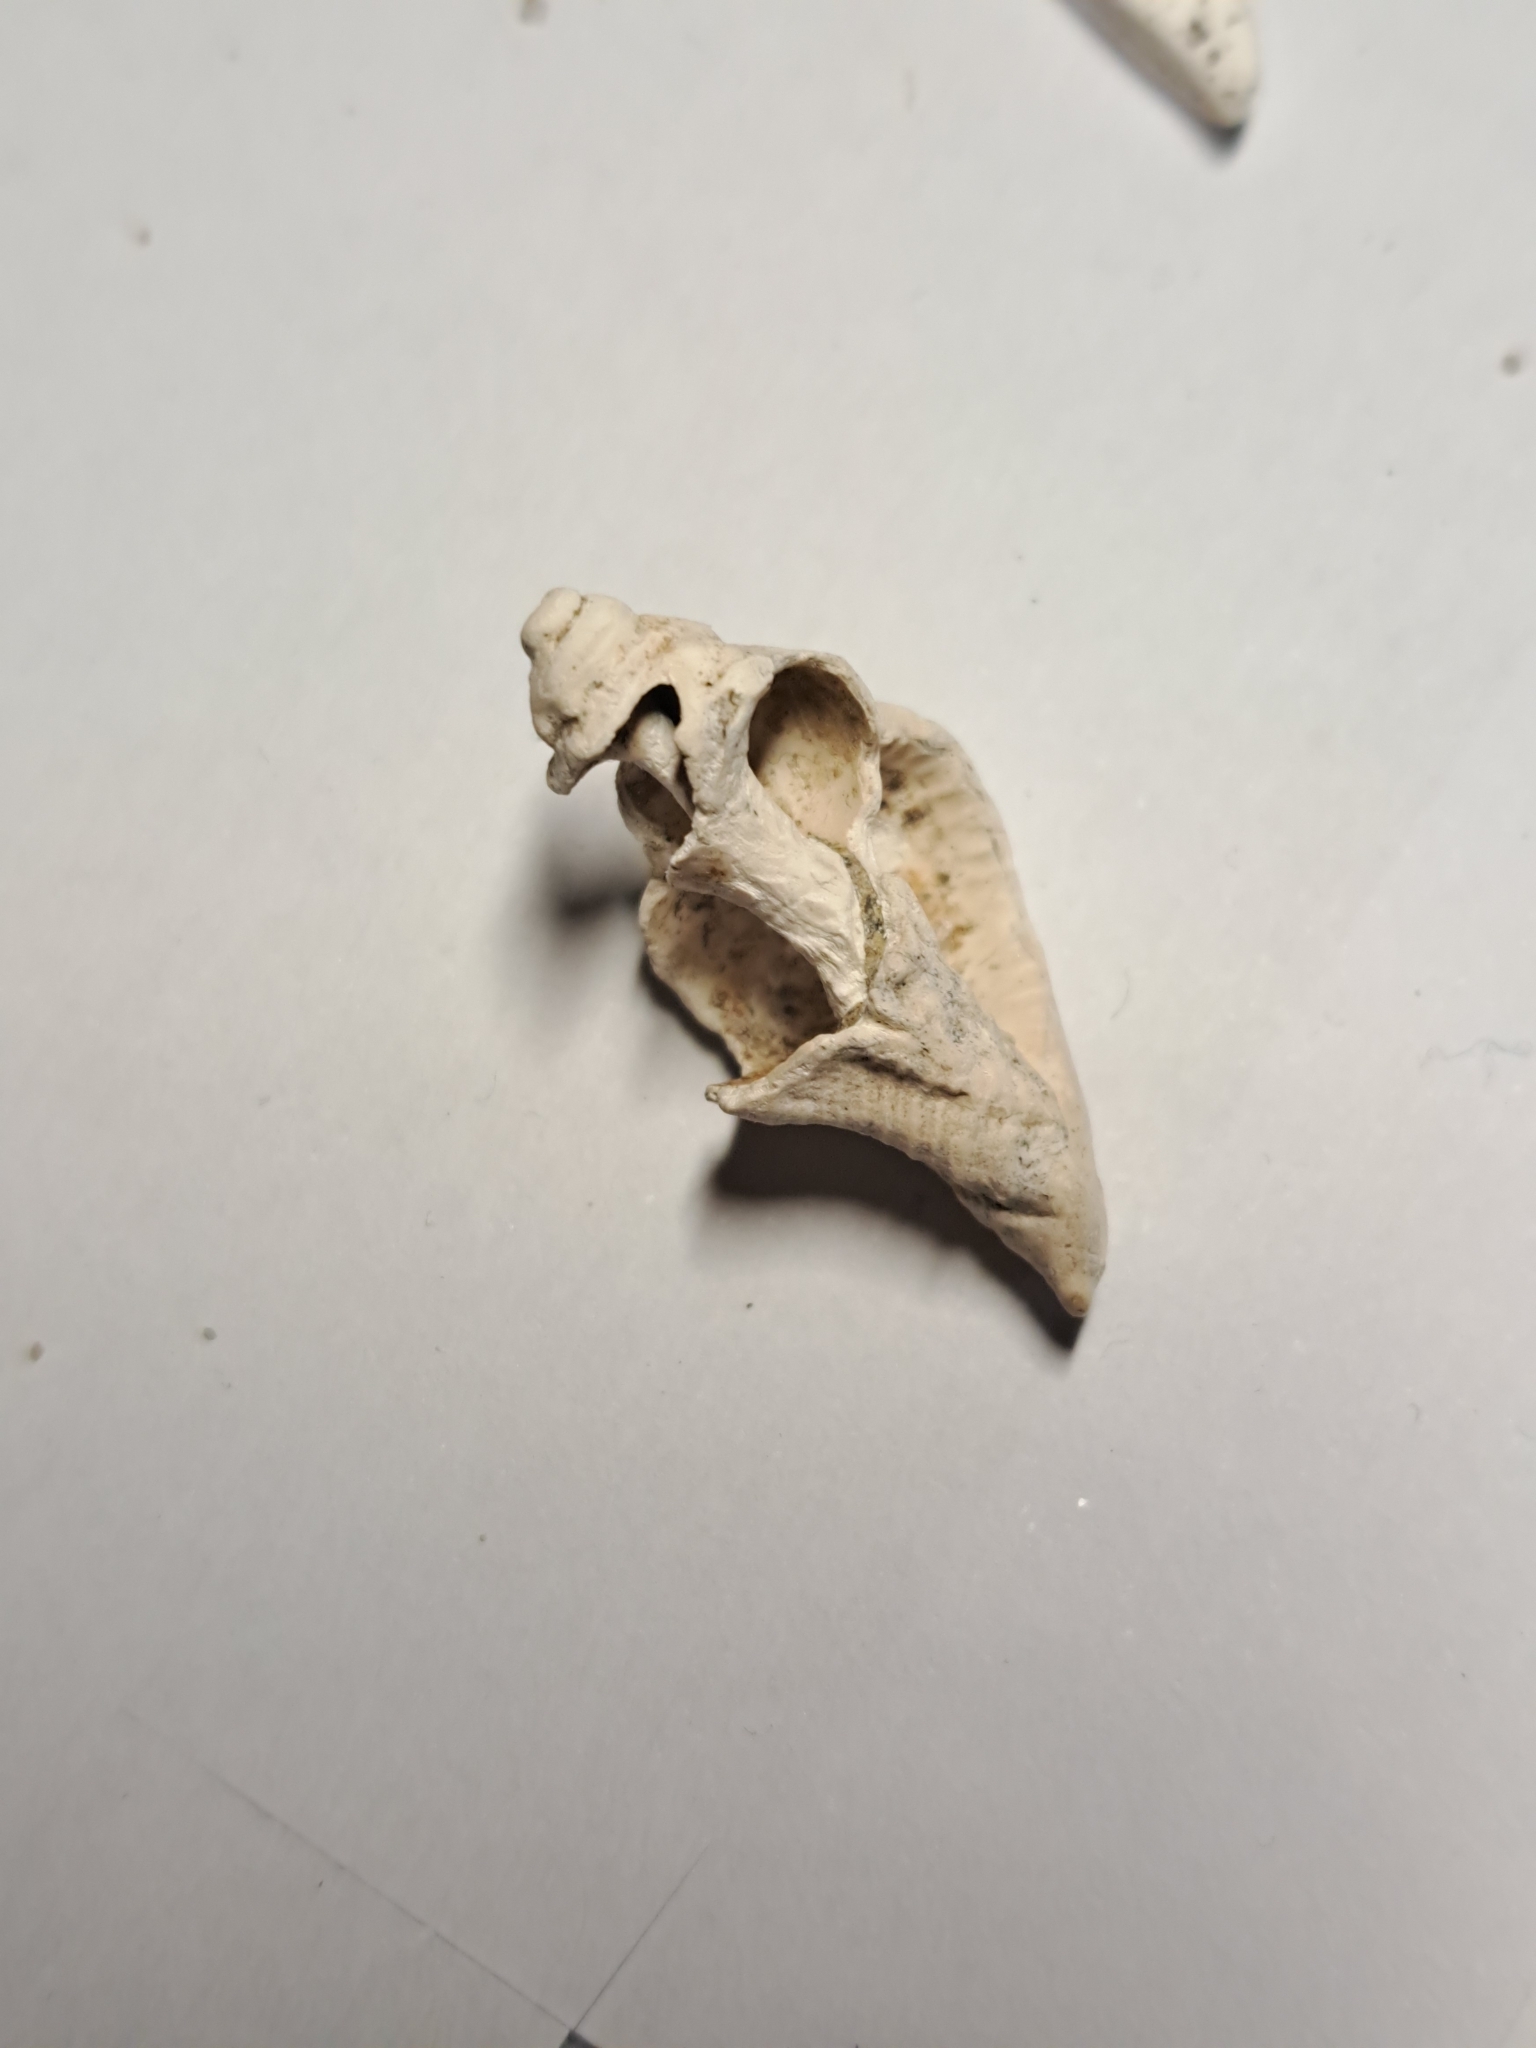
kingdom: Animalia
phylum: Mollusca
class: Gastropoda
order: Neogastropoda
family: Muricidae
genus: Hexaplex
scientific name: Hexaplex trunculus
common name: Banded dye-murex
